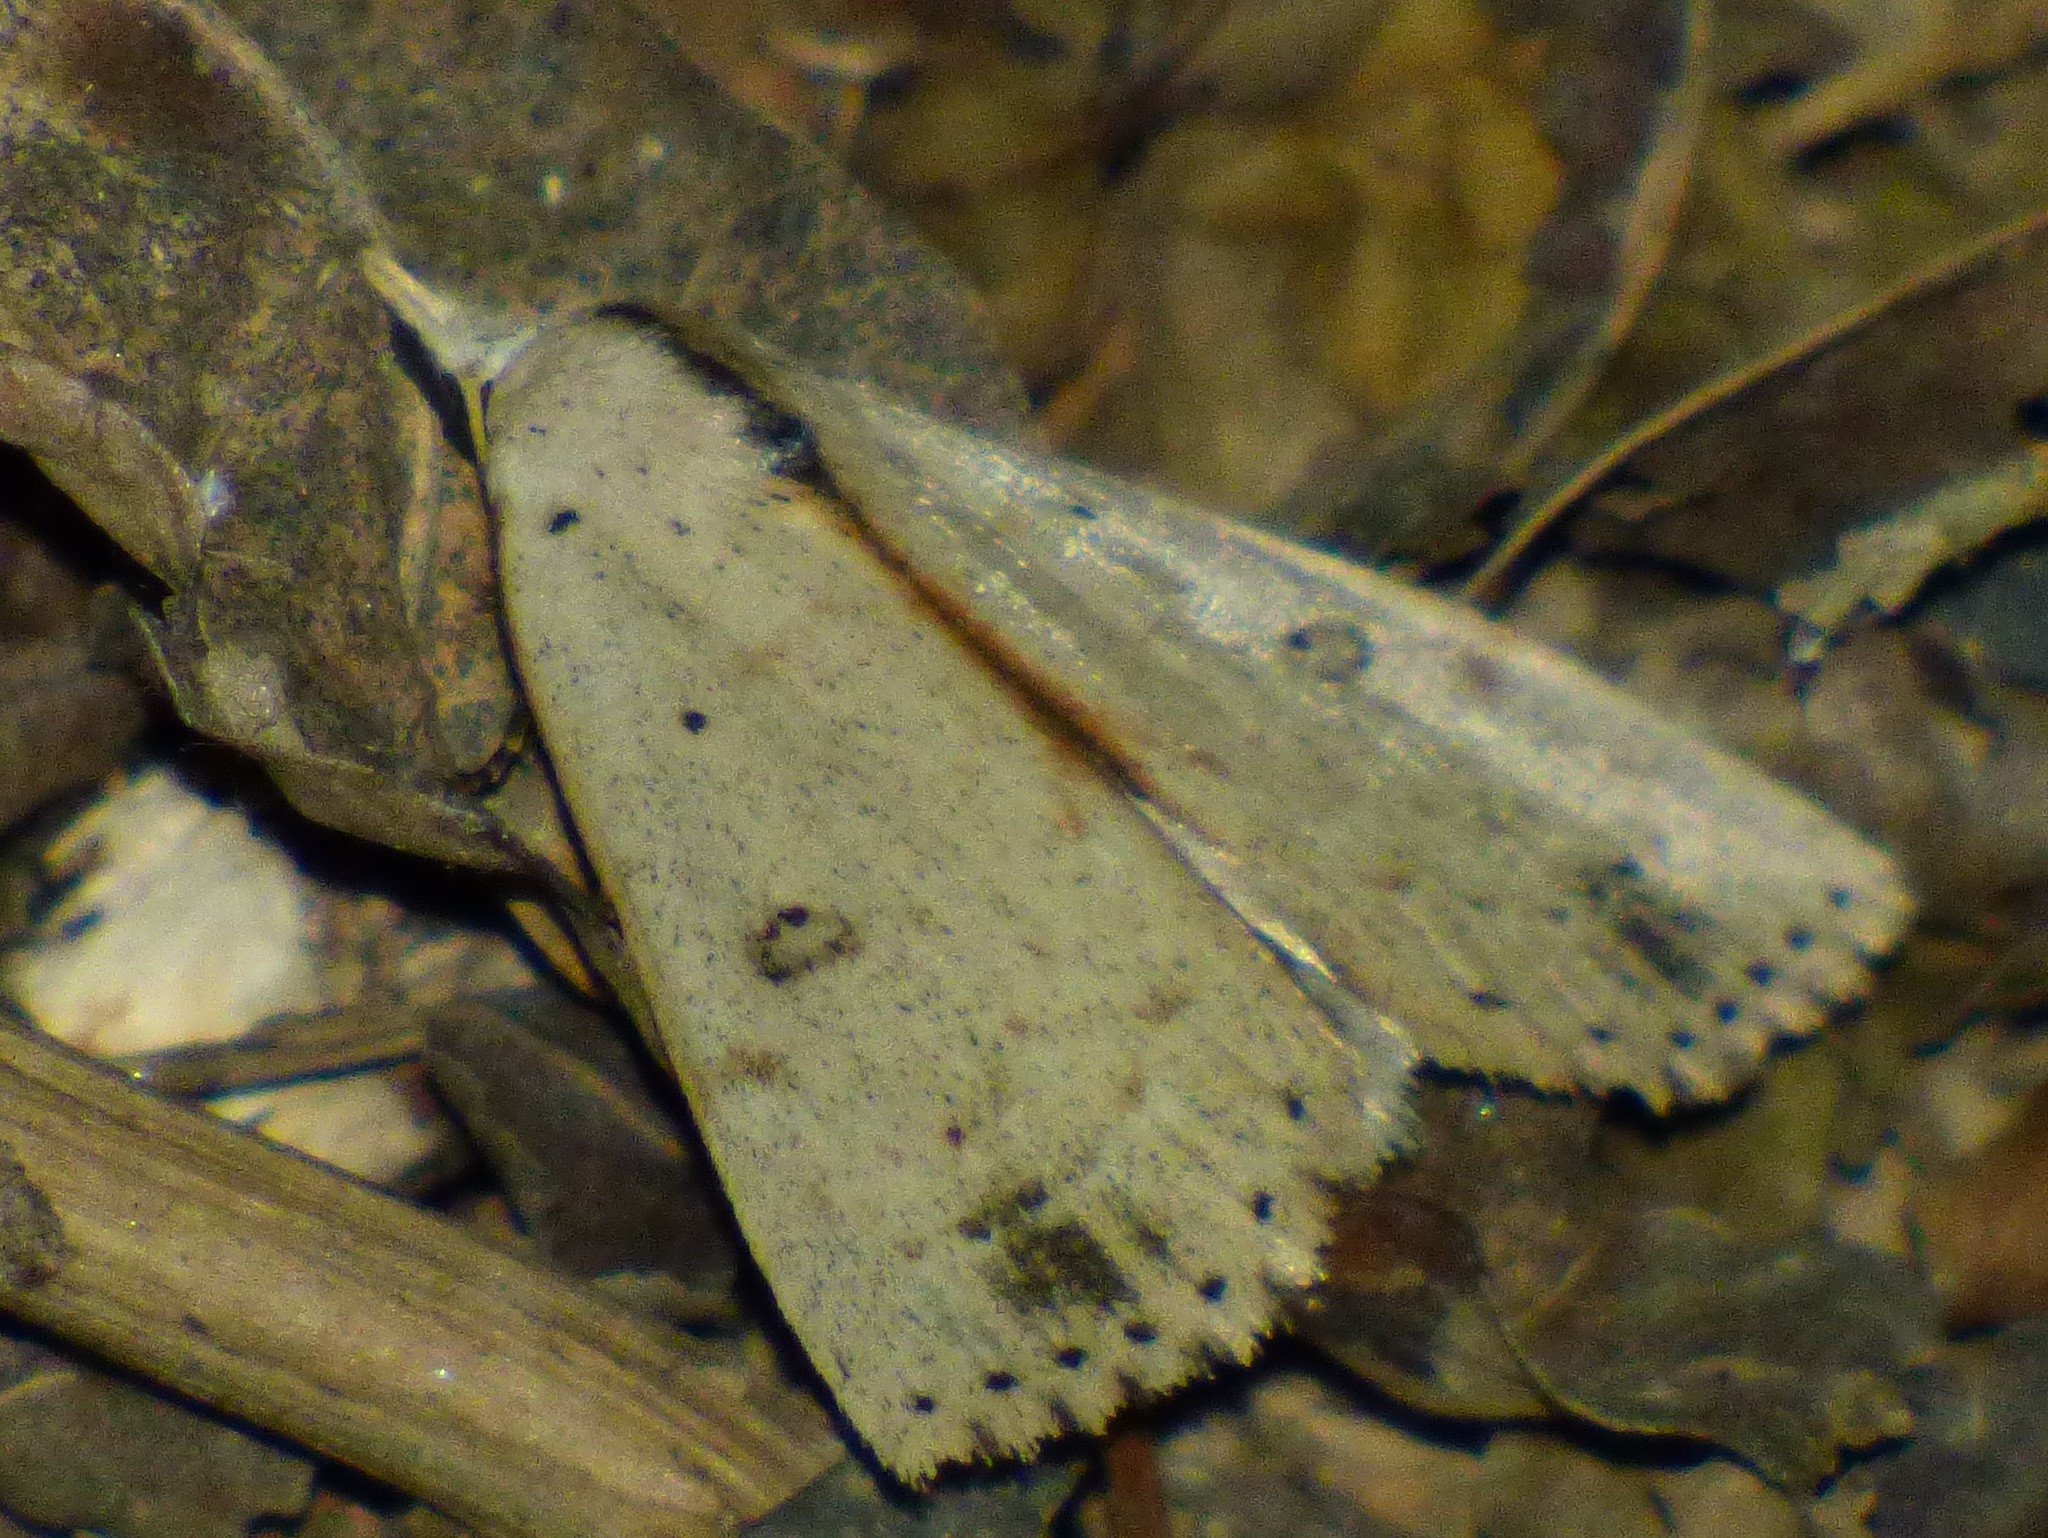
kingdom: Animalia
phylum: Arthropoda
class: Insecta
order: Lepidoptera
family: Erebidae
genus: Scolecocampa
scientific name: Scolecocampa liburna
